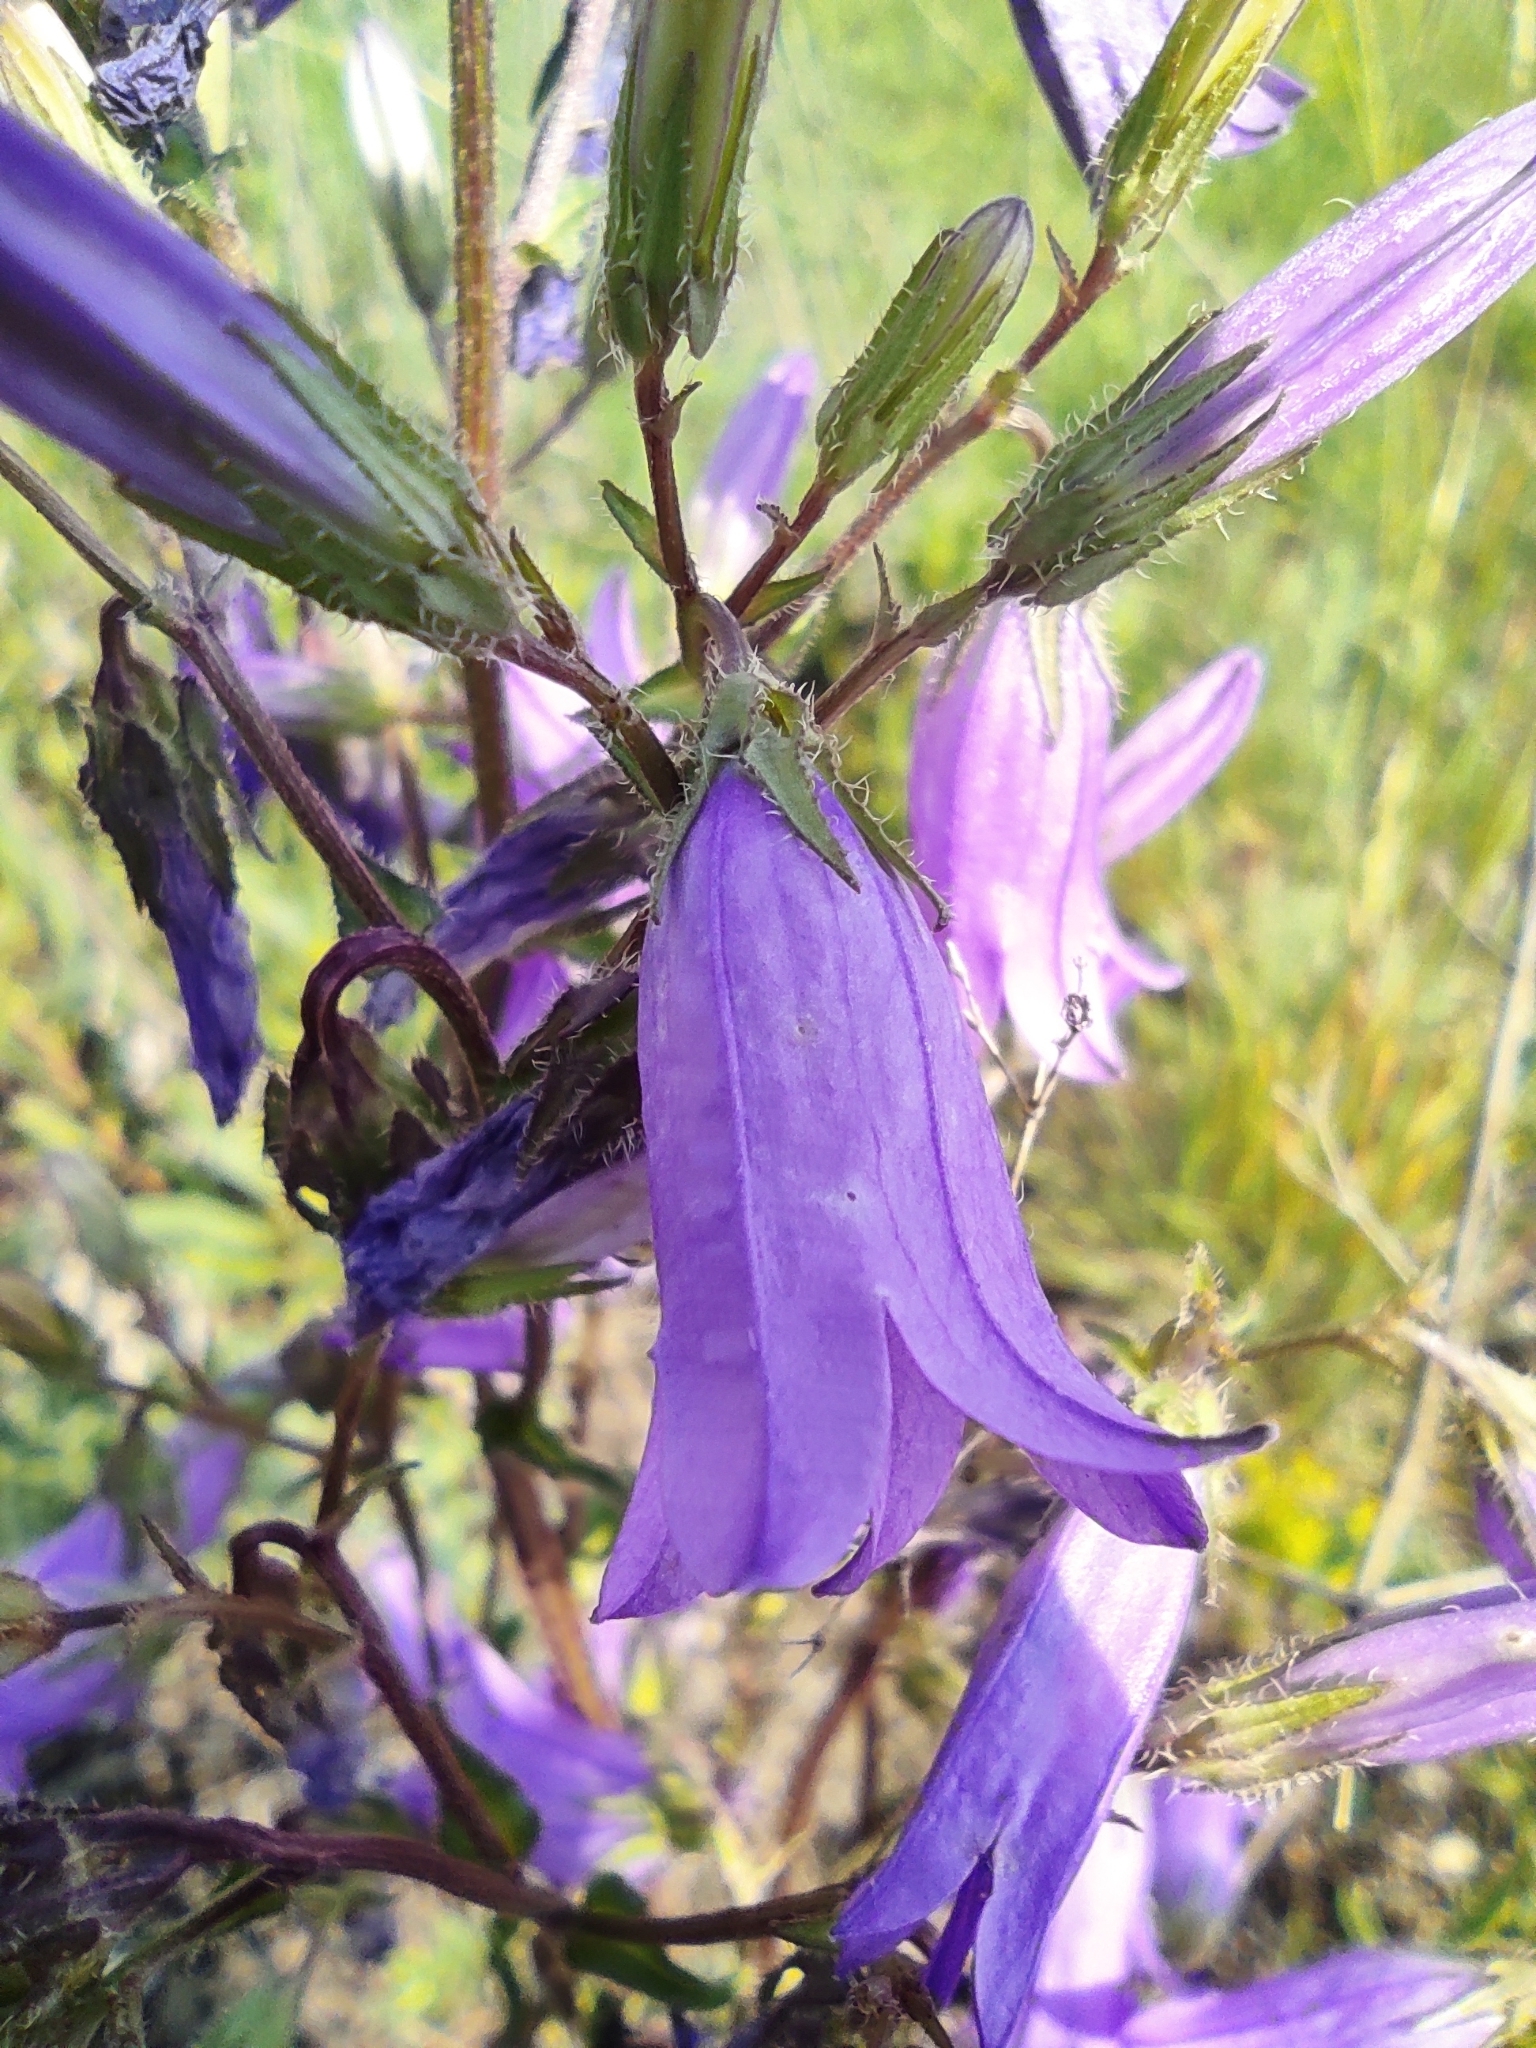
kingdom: Plantae
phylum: Tracheophyta
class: Magnoliopsida
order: Asterales
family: Campanulaceae
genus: Campanula
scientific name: Campanula sibirica
